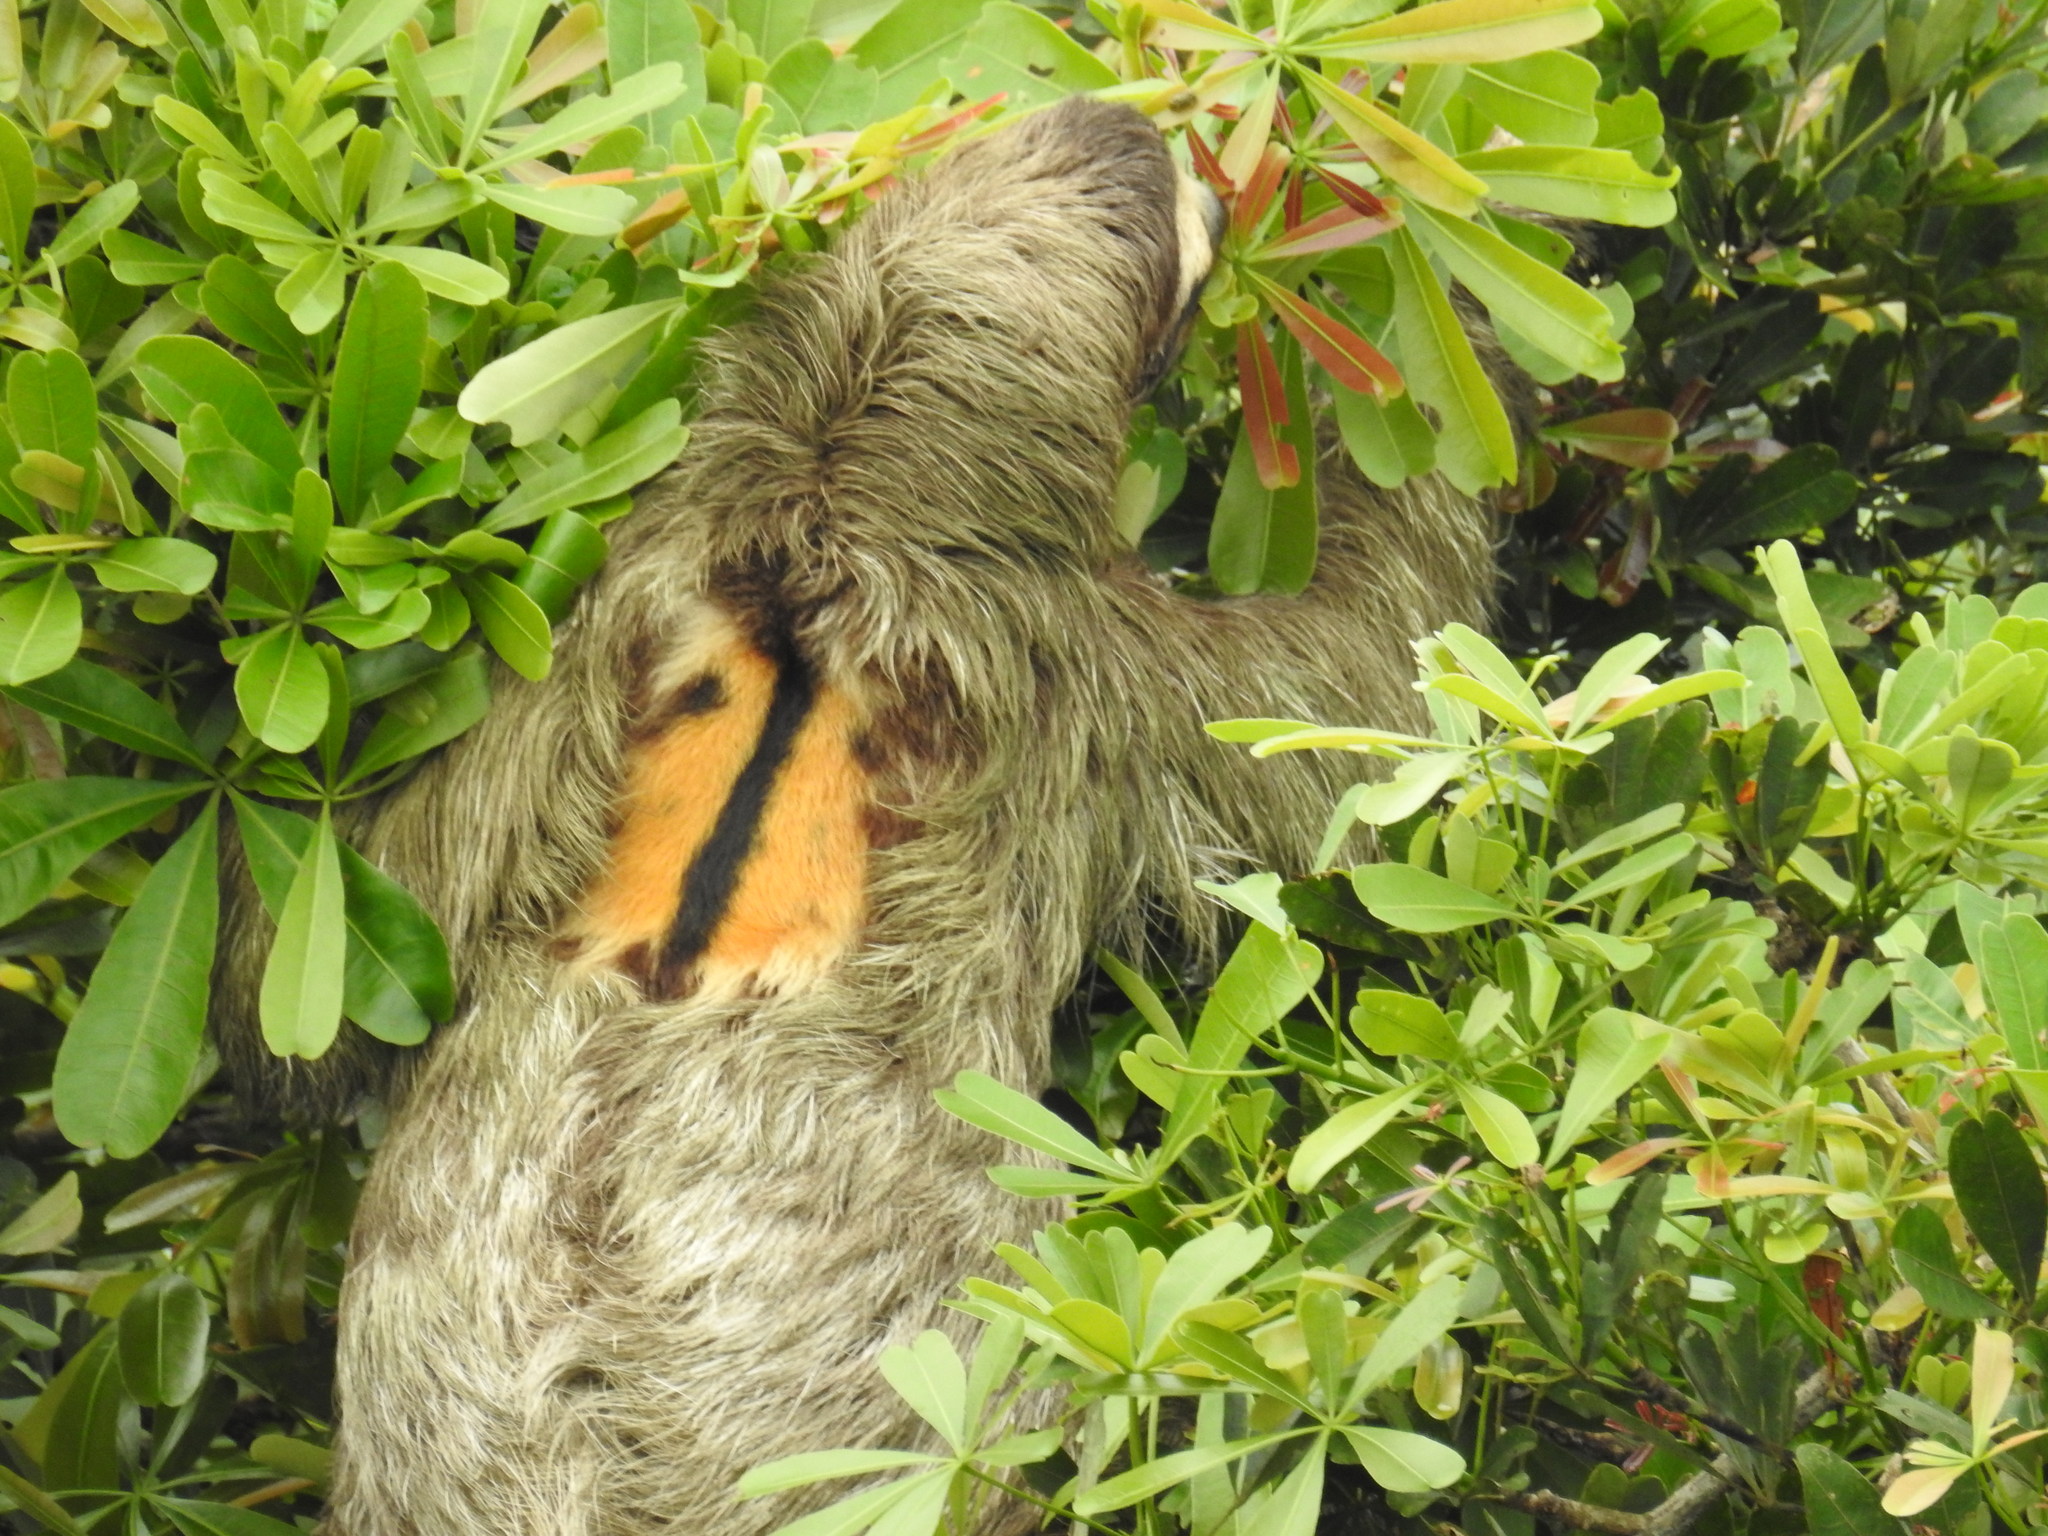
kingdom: Animalia
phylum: Chordata
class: Mammalia
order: Pilosa
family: Bradypodidae
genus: Bradypus
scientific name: Bradypus variegatus
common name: Brown-throated three-toed sloth
